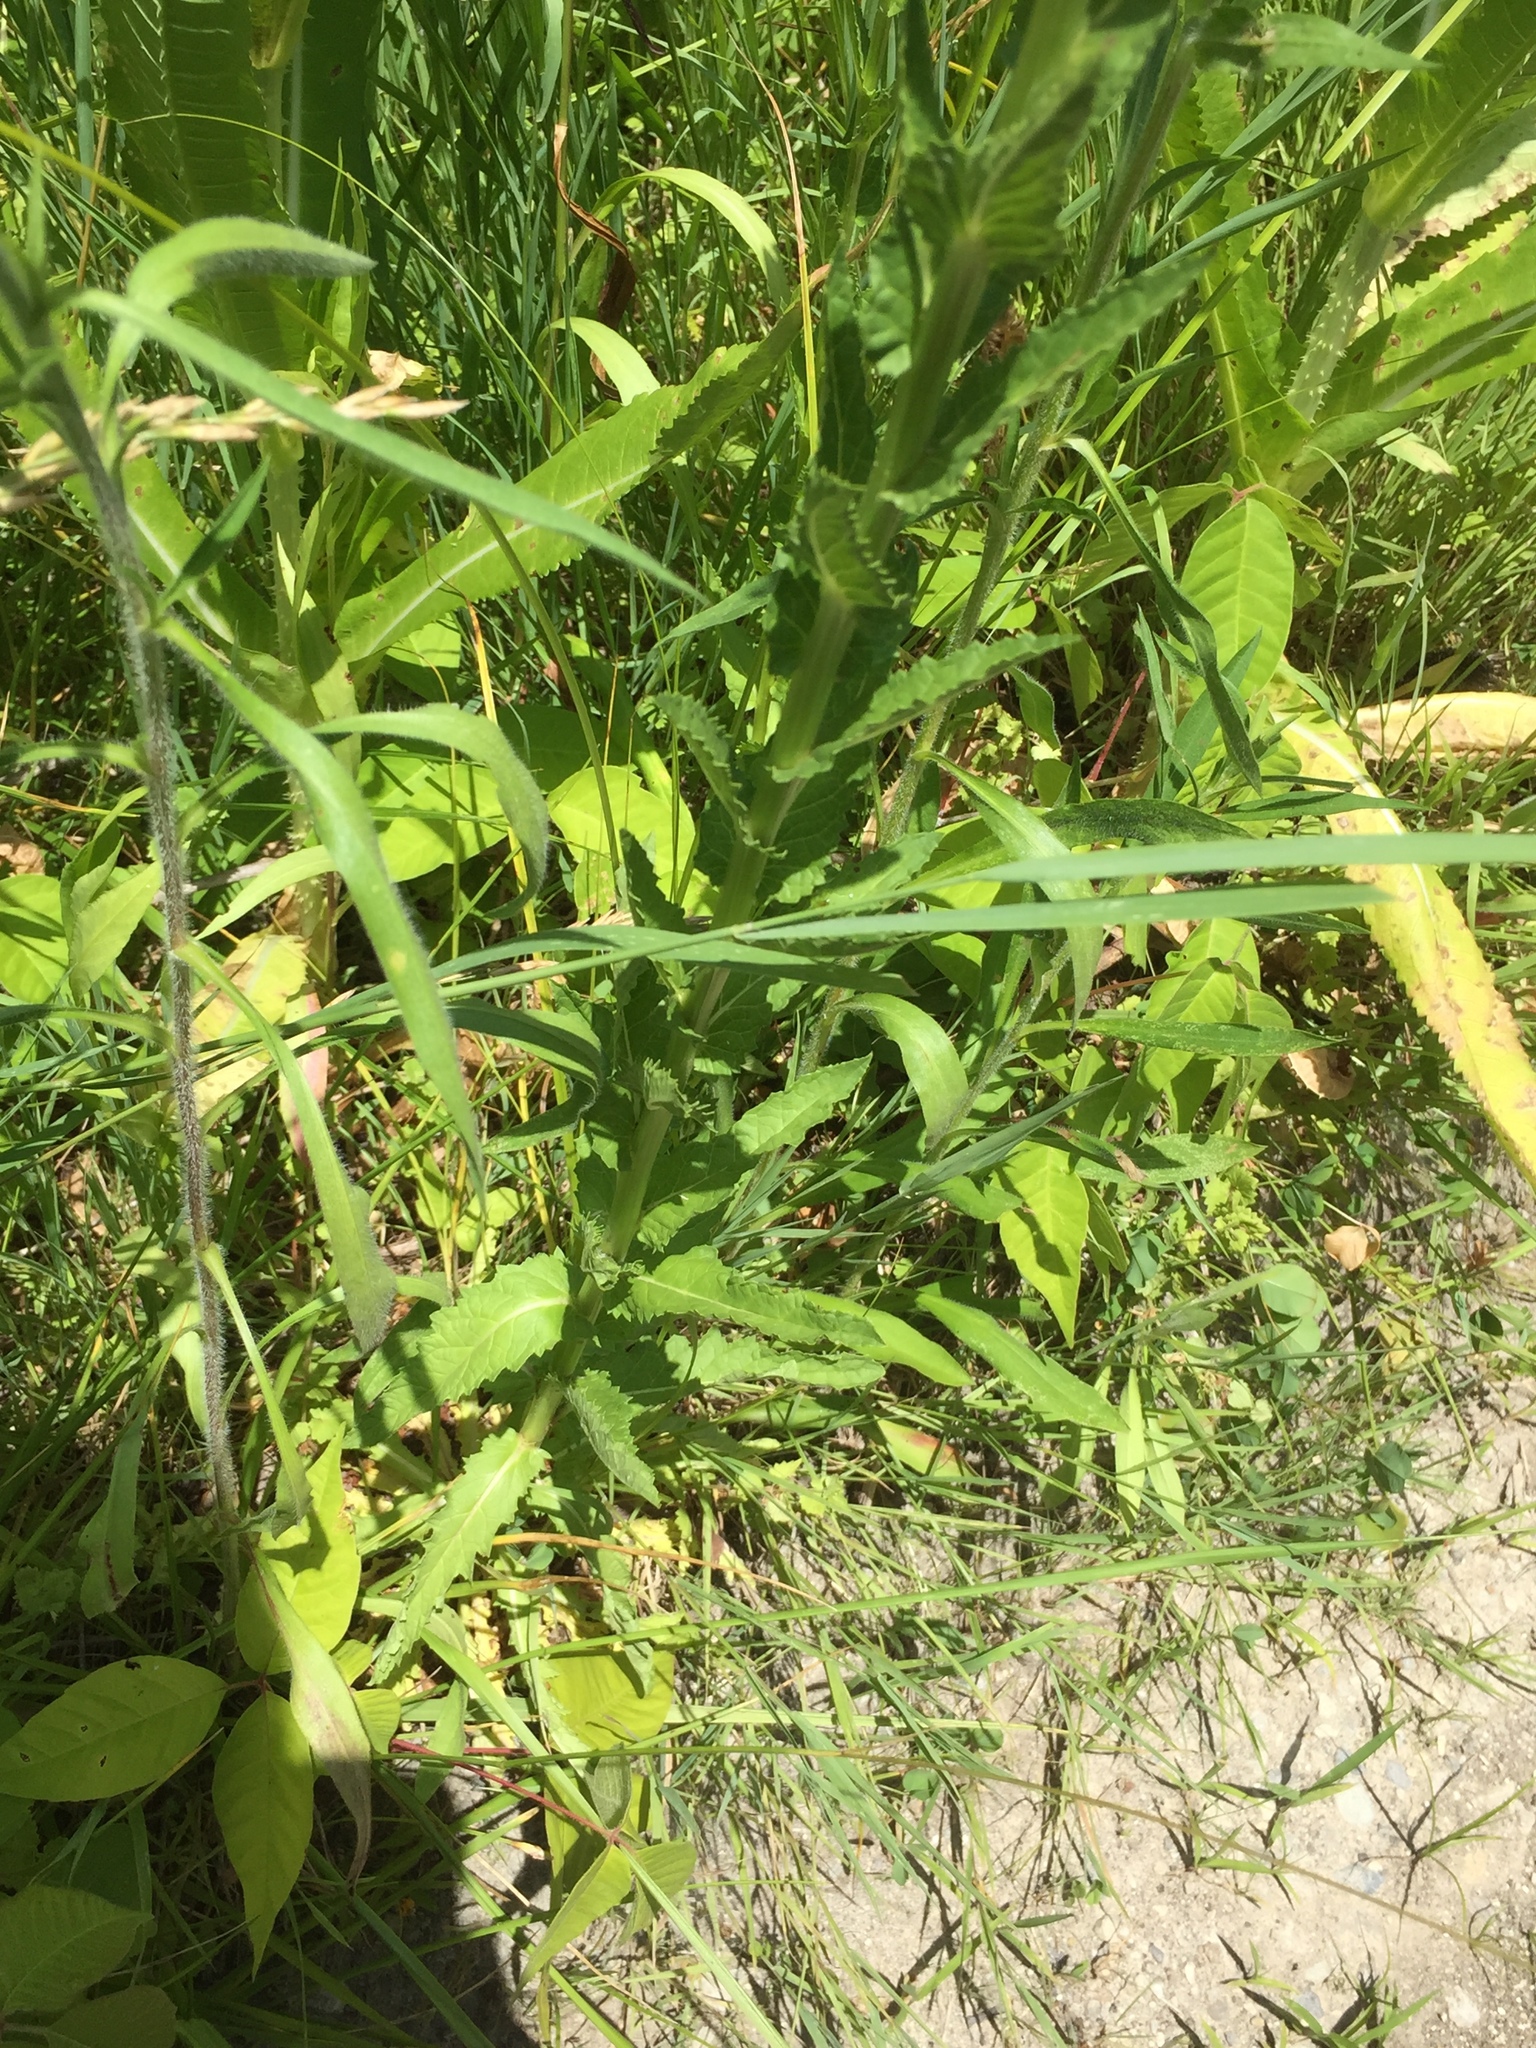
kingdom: Plantae
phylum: Tracheophyta
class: Magnoliopsida
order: Lamiales
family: Scrophulariaceae
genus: Verbascum
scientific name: Verbascum blattaria
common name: Moth mullein
